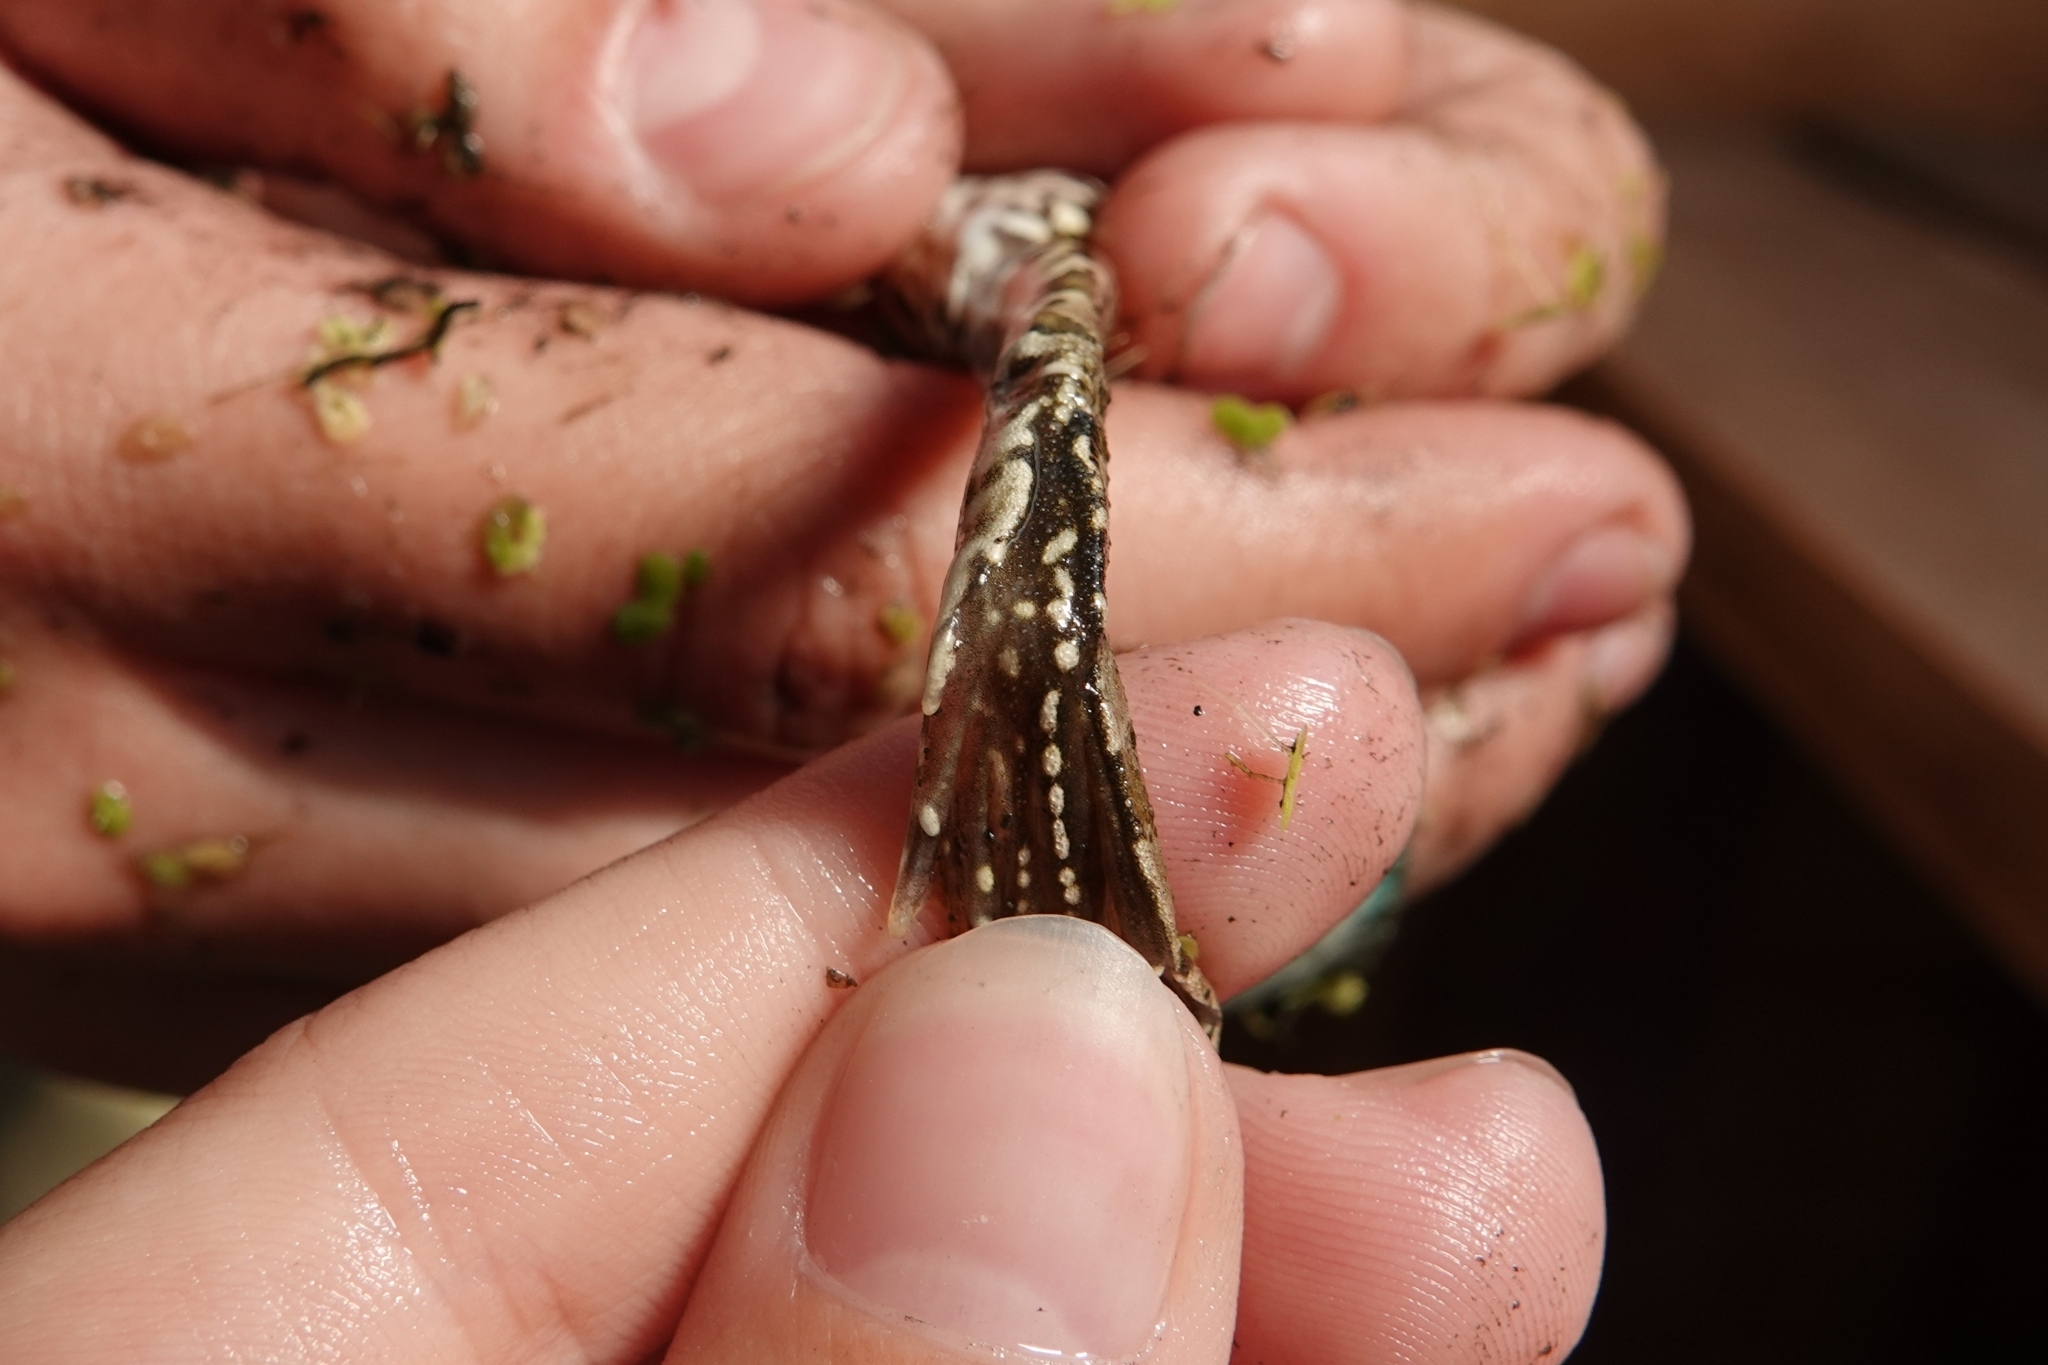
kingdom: Animalia
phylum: Chordata
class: Amphibia
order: Anura
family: Ranidae
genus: Pelophylax
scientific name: Pelophylax ridibundus
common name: Marsh frog
